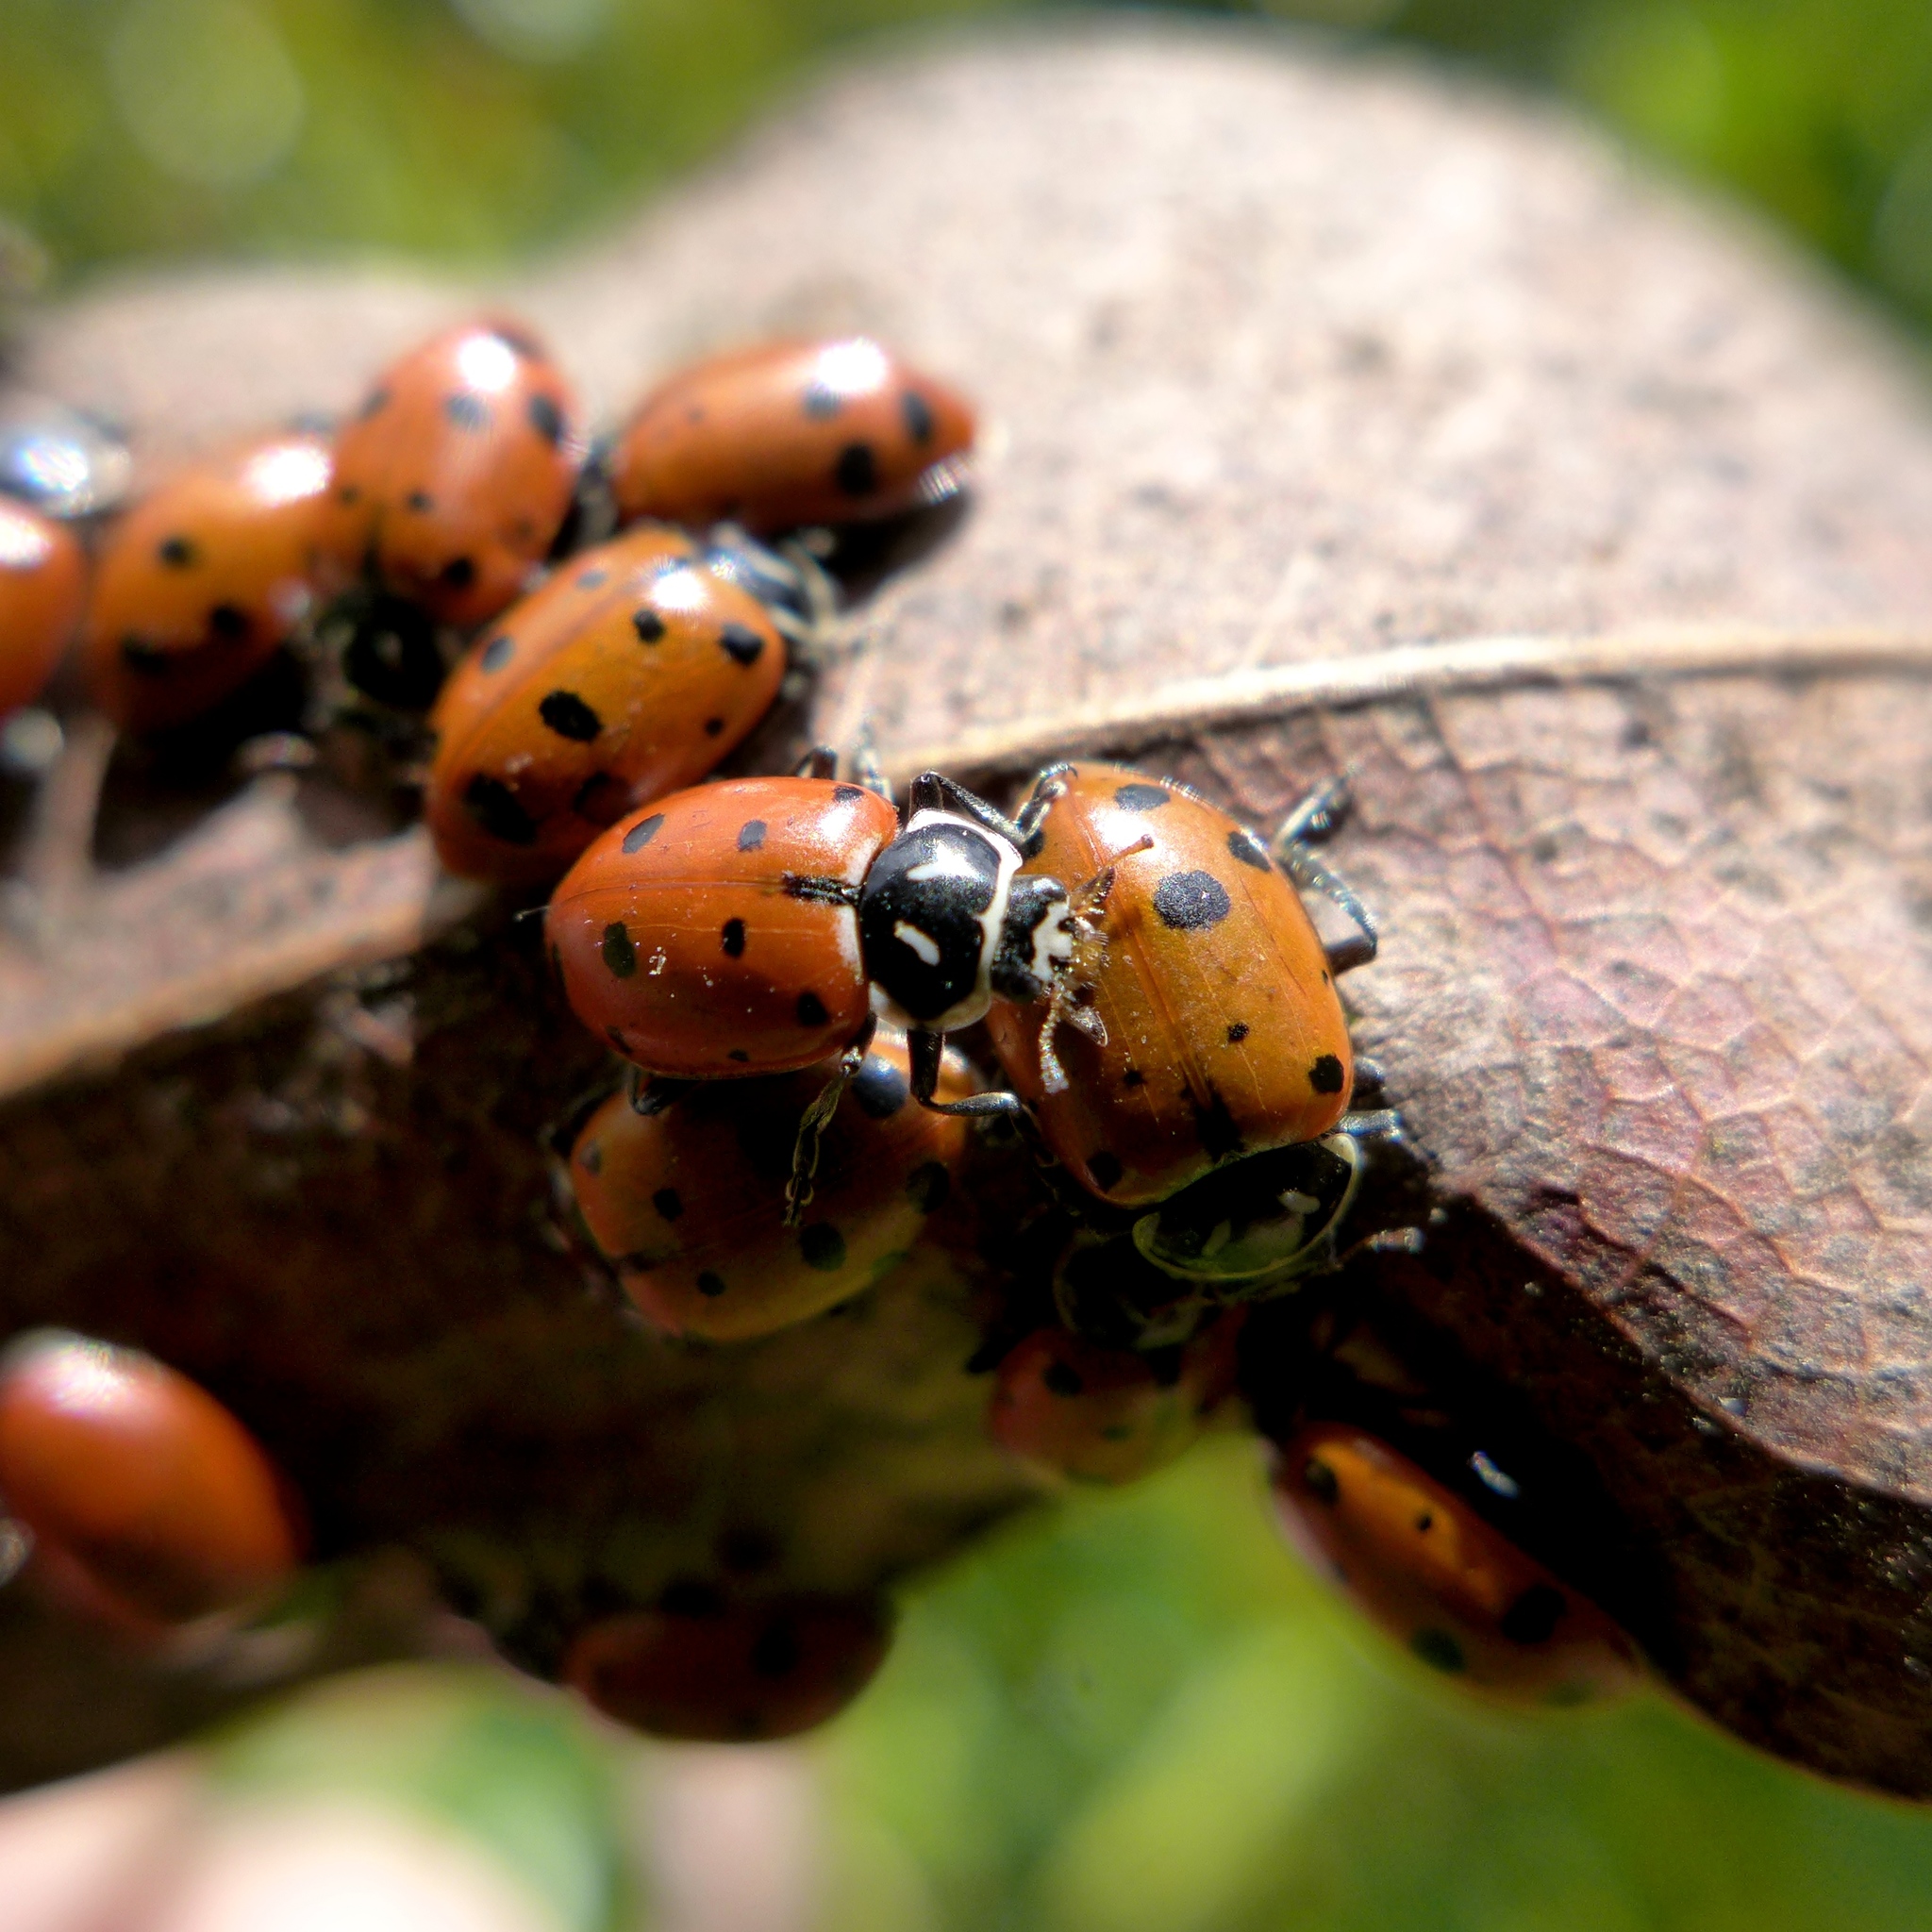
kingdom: Animalia
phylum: Arthropoda
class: Insecta
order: Coleoptera
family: Coccinellidae
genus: Hippodamia
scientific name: Hippodamia convergens
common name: Convergent lady beetle
